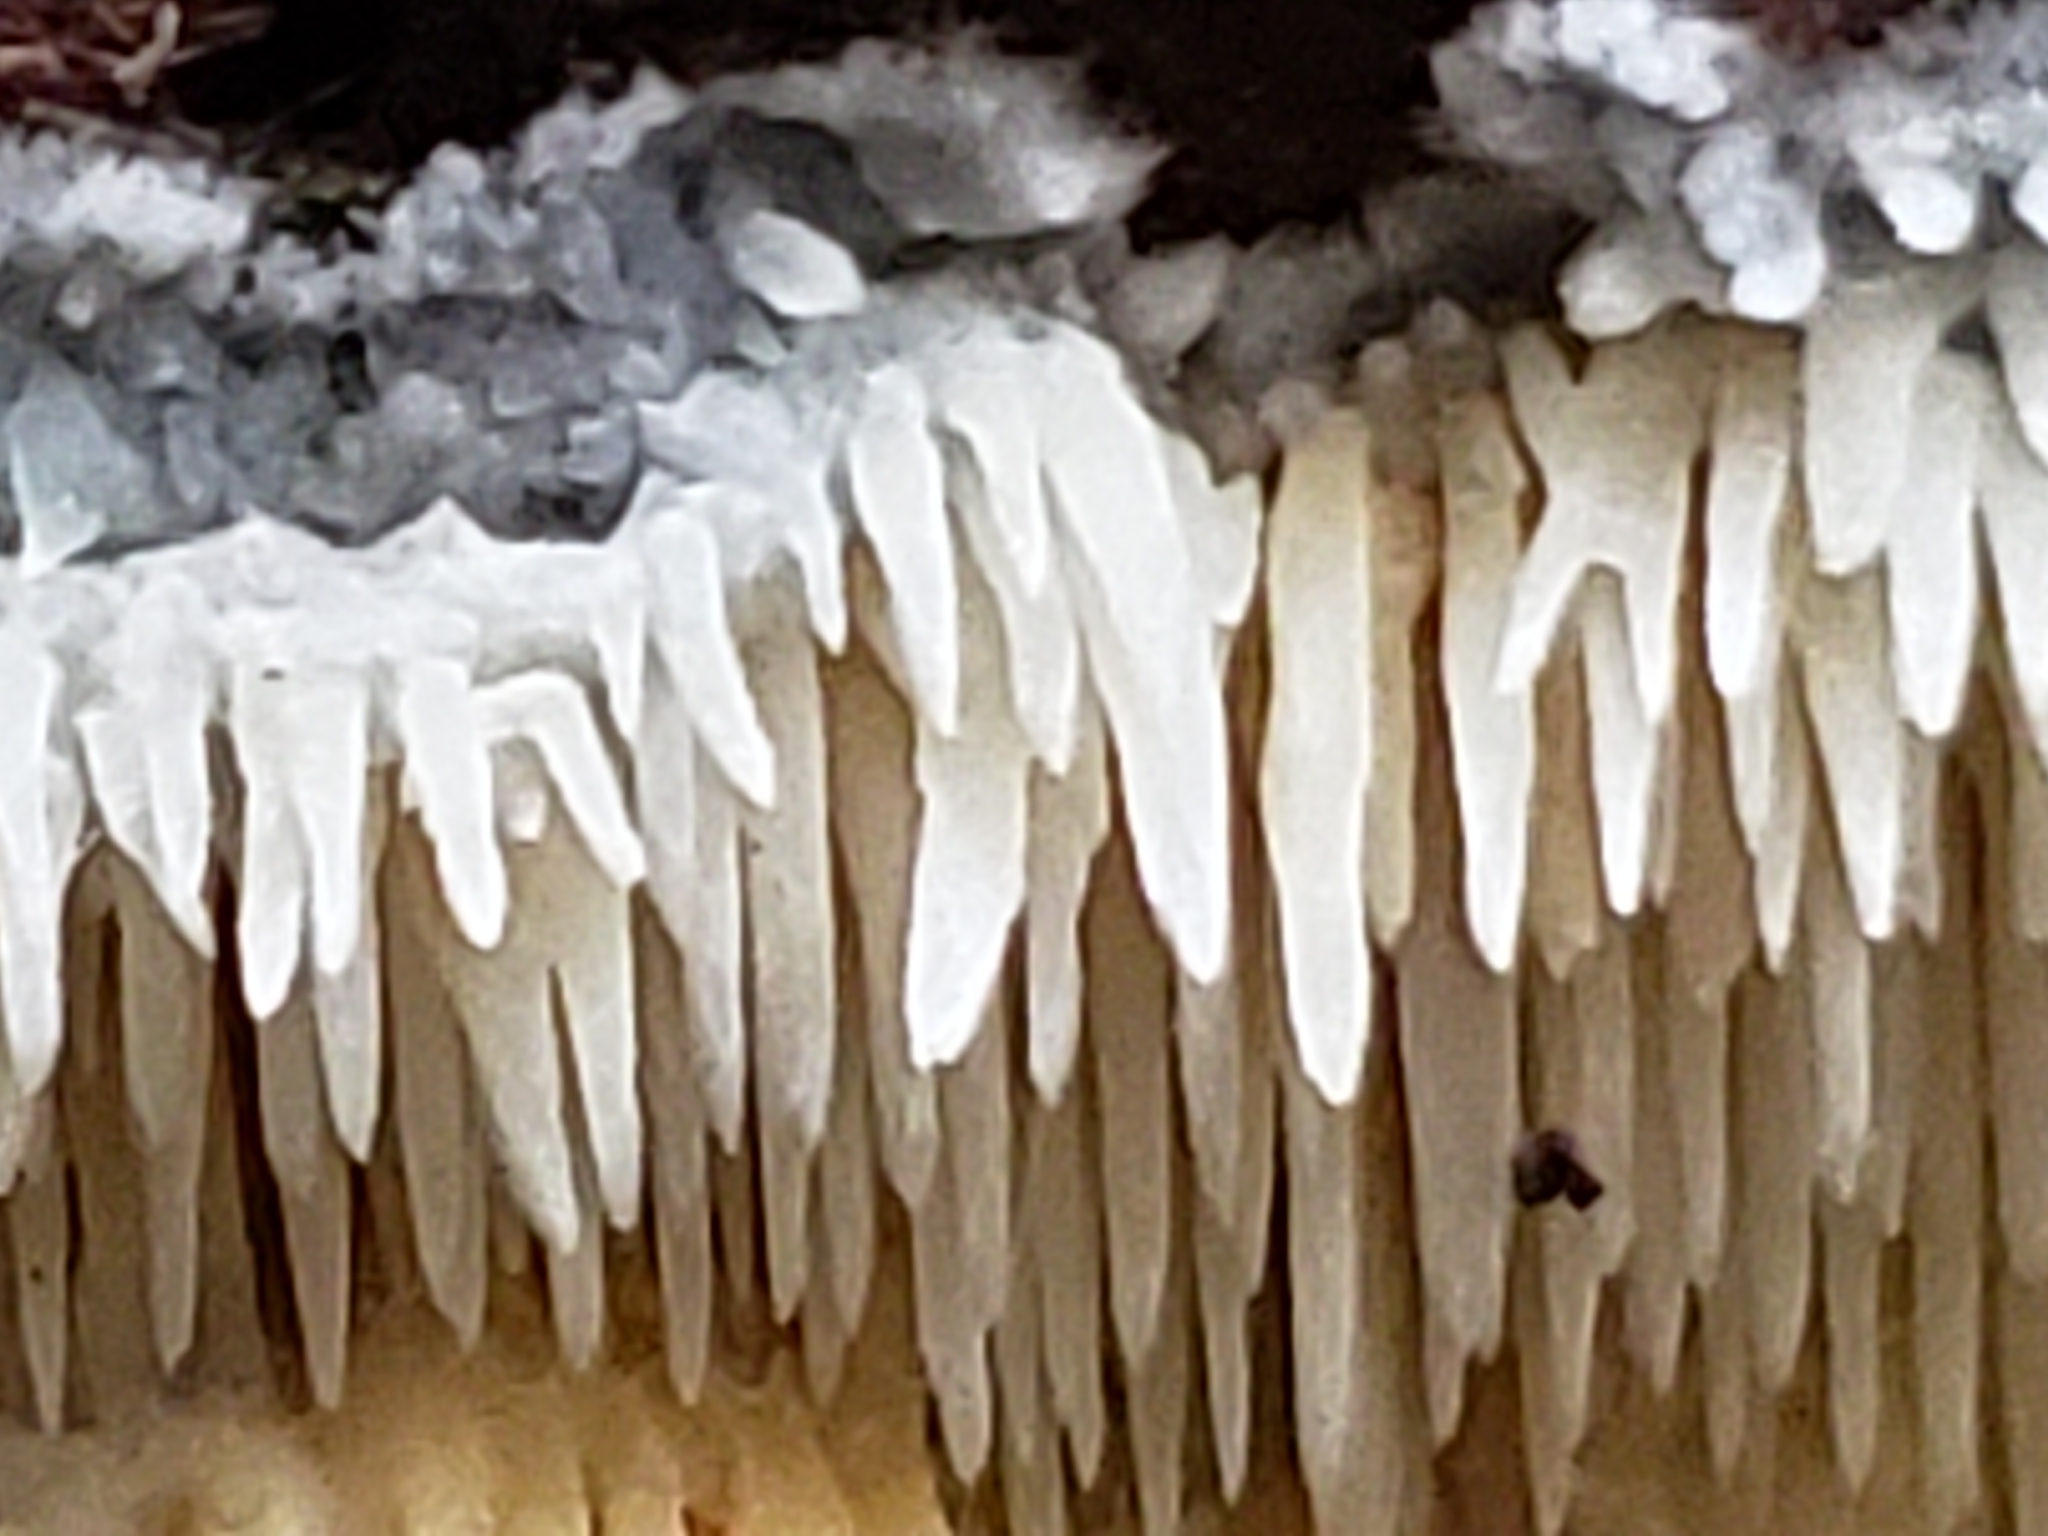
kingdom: Fungi
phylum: Basidiomycota
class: Agaricomycetes
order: Agaricales
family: Radulomycetaceae
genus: Radulomyces
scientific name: Radulomyces copelandii
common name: Asian beauty
